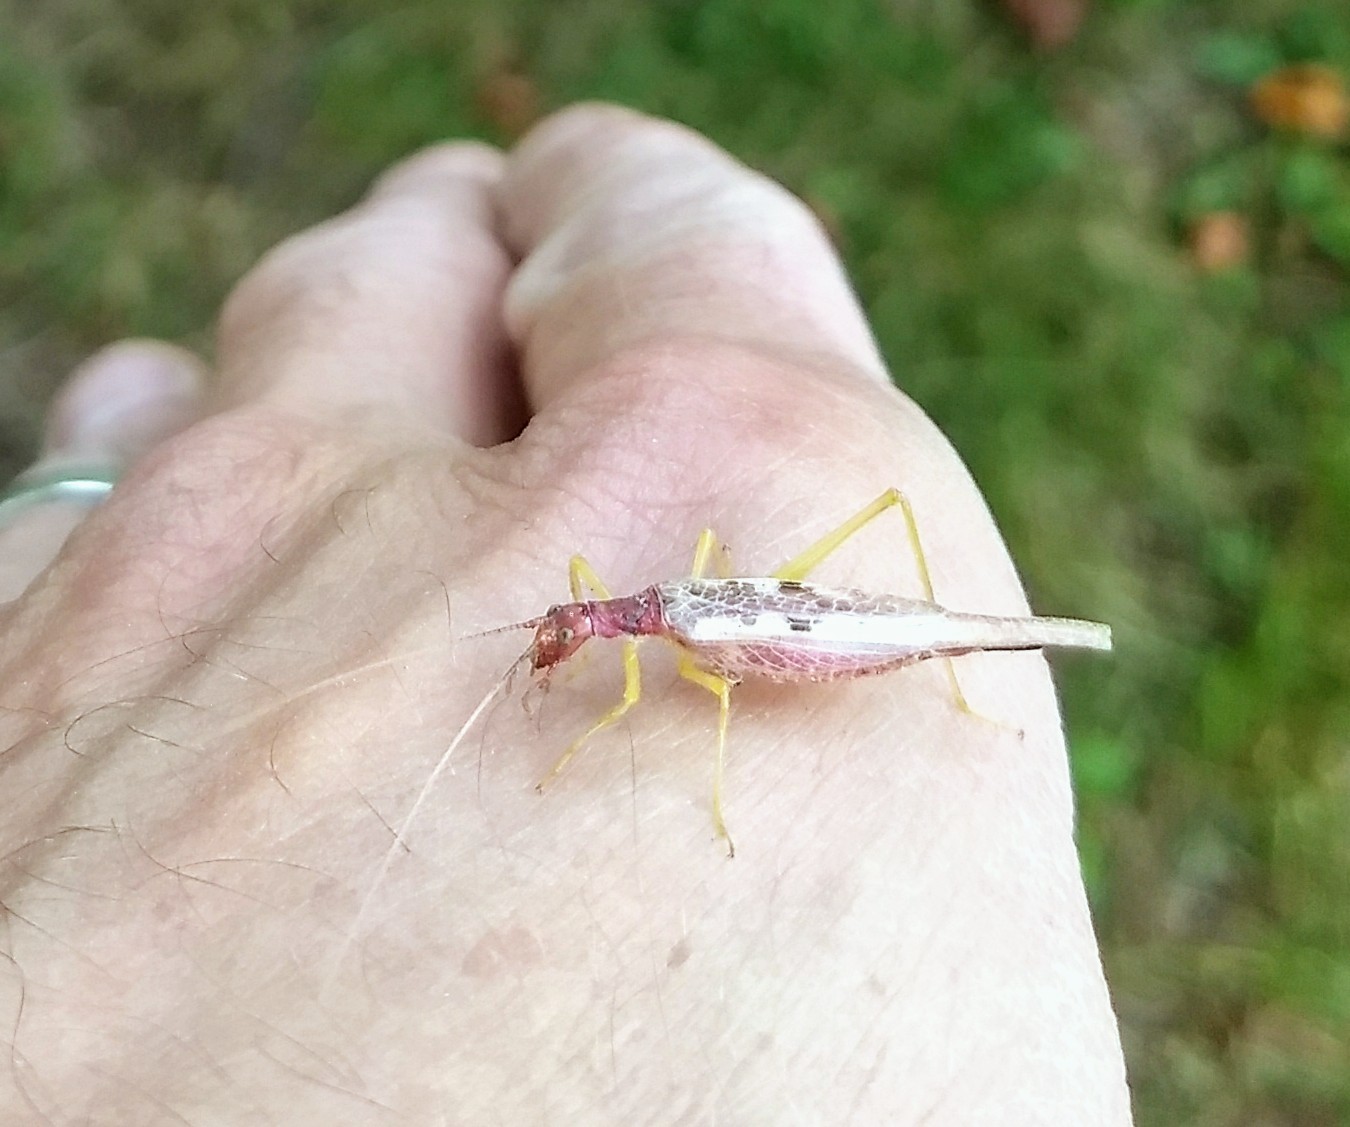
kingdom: Animalia
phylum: Arthropoda
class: Insecta
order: Orthoptera
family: Gryllidae
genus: Neoxabea
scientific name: Neoxabea bipunctata
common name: Two-spotted tree cricket
